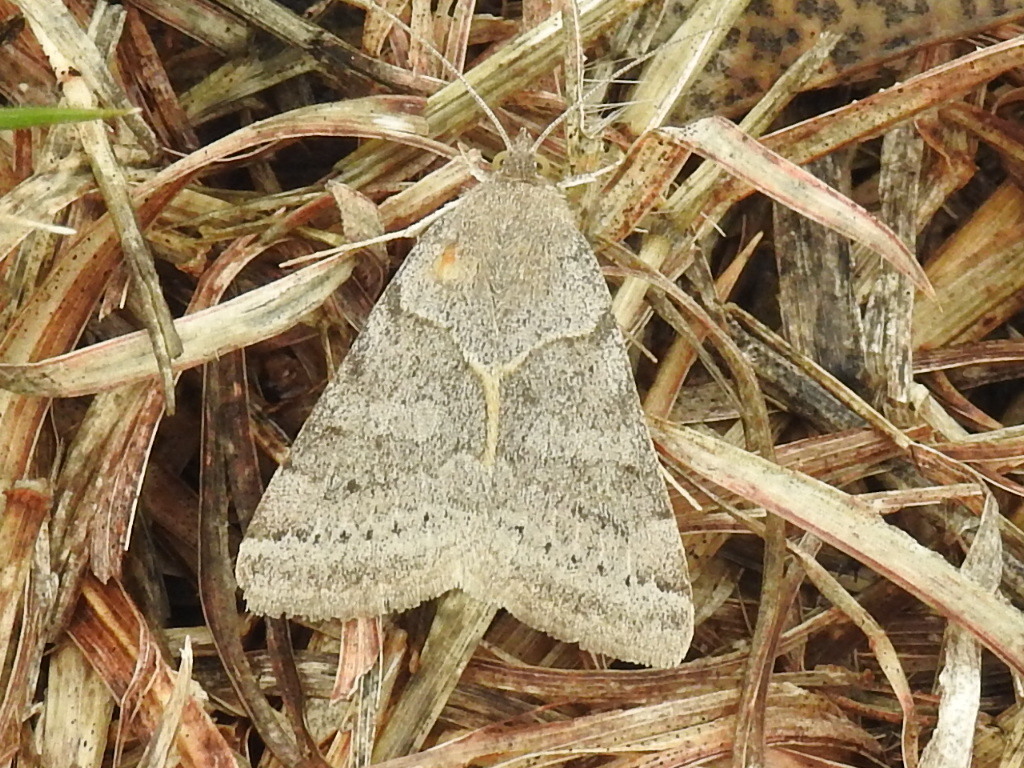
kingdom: Animalia
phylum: Arthropoda
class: Insecta
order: Lepidoptera
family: Erebidae
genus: Caenurgina
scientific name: Caenurgina erechtea
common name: Forage looper moth
